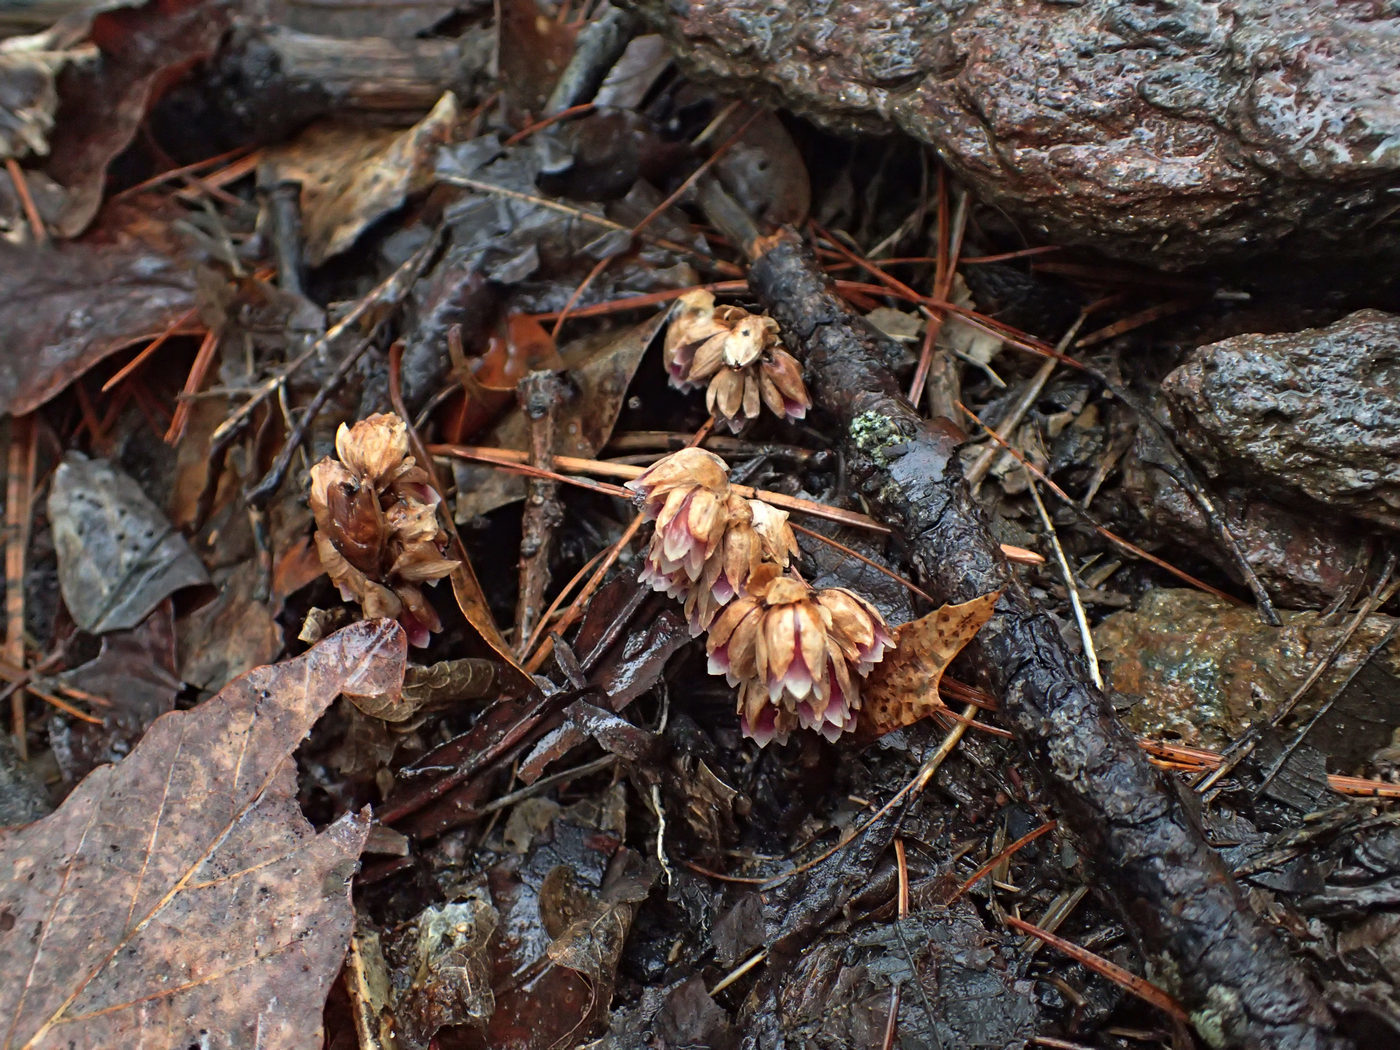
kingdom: Plantae
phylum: Tracheophyta
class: Magnoliopsida
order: Ericales
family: Ericaceae
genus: Monotropsis
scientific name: Monotropsis odorata
